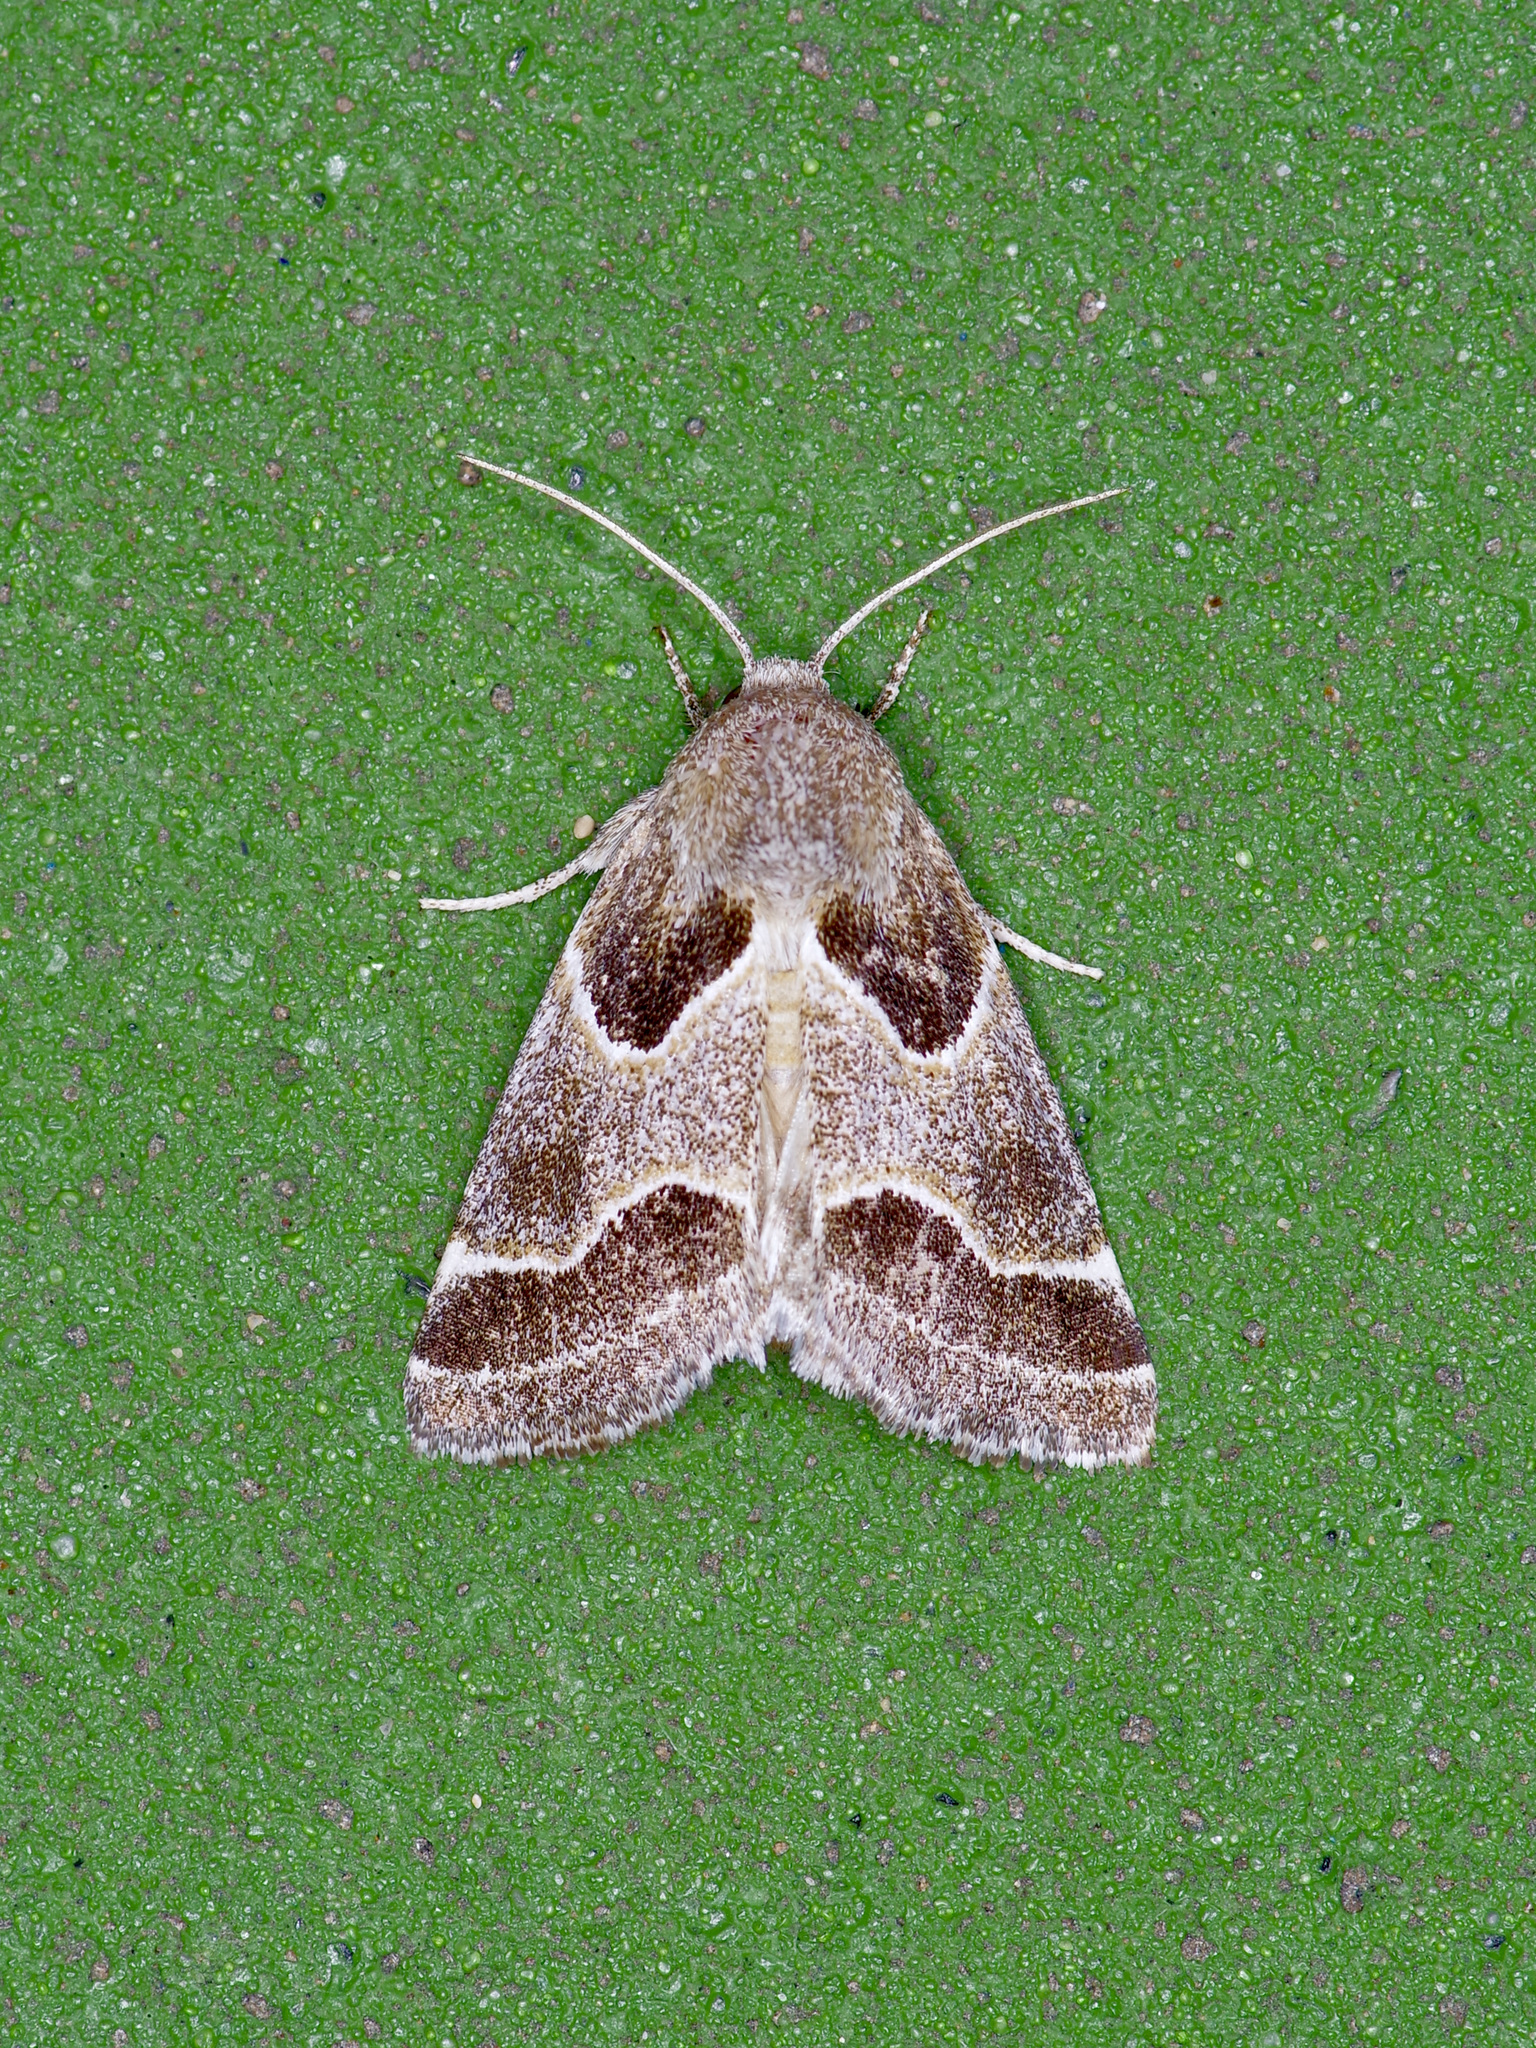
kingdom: Animalia
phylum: Arthropoda
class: Insecta
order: Lepidoptera
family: Noctuidae
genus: Schinia
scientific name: Schinia rivulosa
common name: Scarce meal-moth
